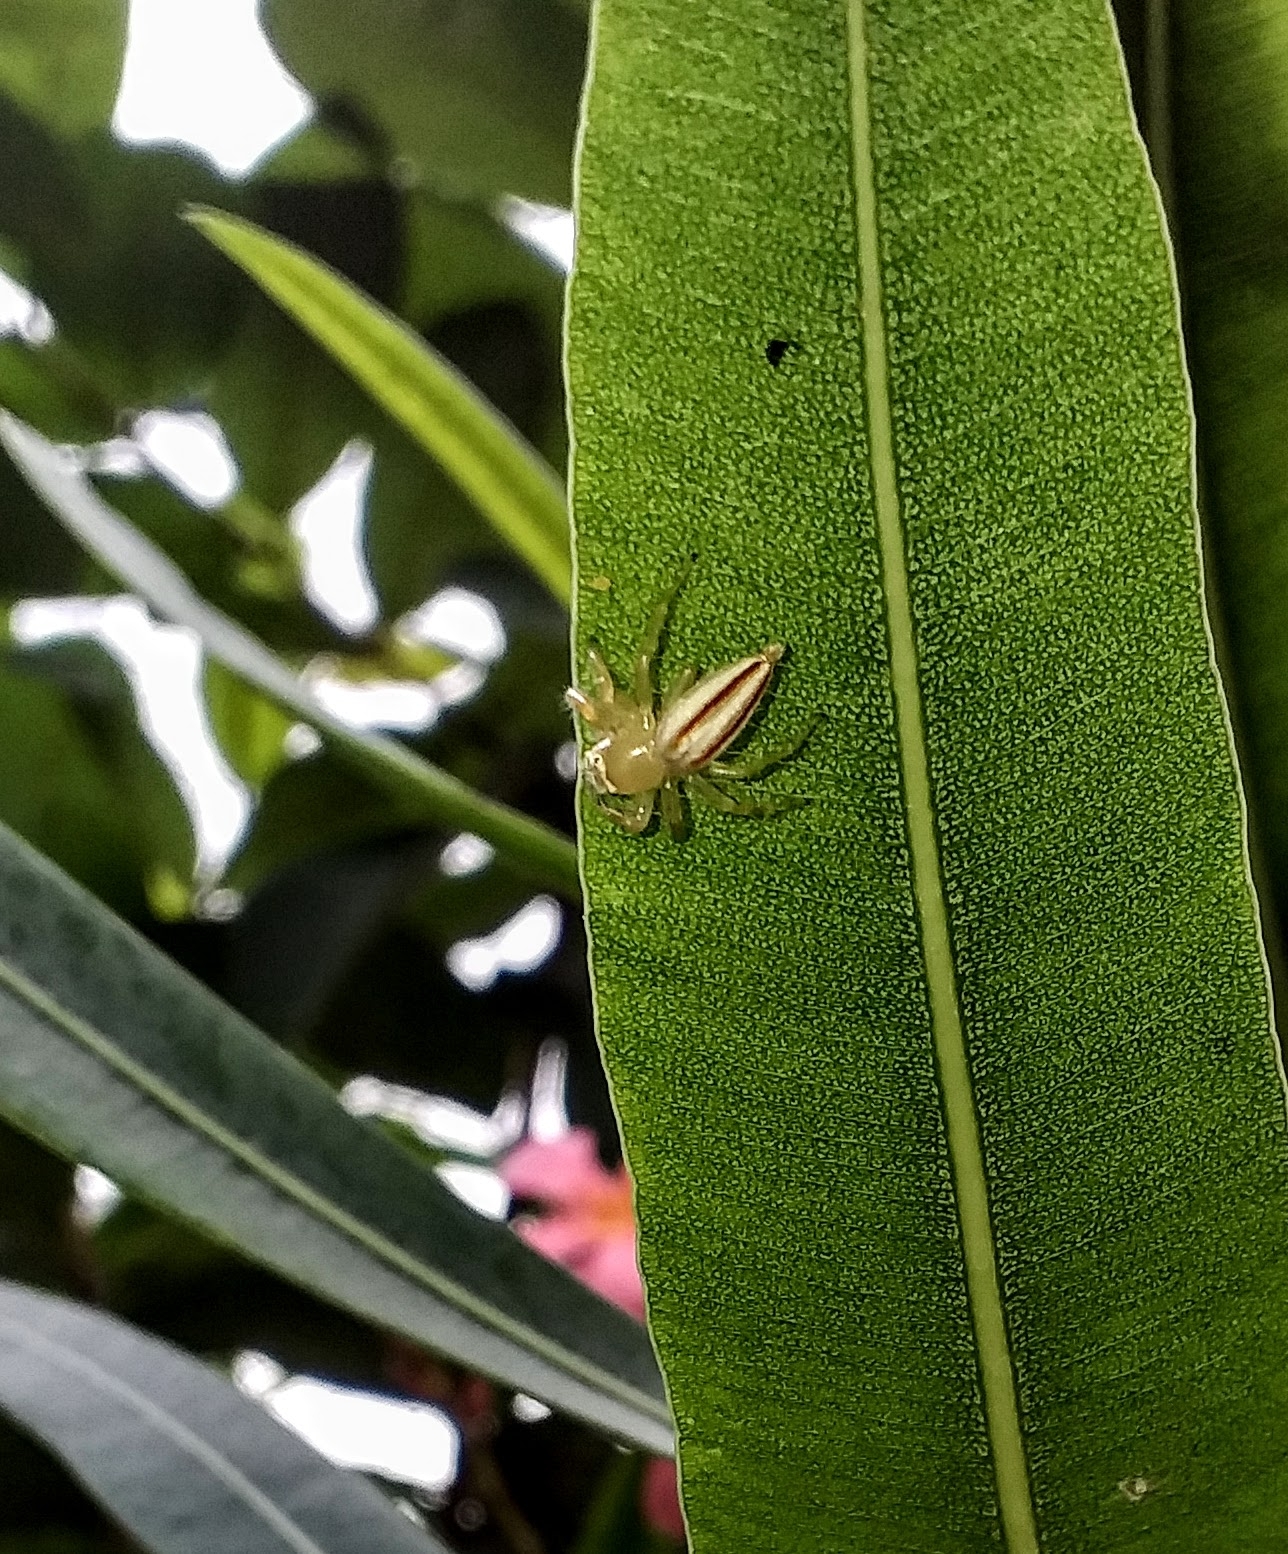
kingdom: Animalia
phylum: Arthropoda
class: Arachnida
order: Araneae
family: Salticidae
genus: Telamonia
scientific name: Telamonia dimidiata
